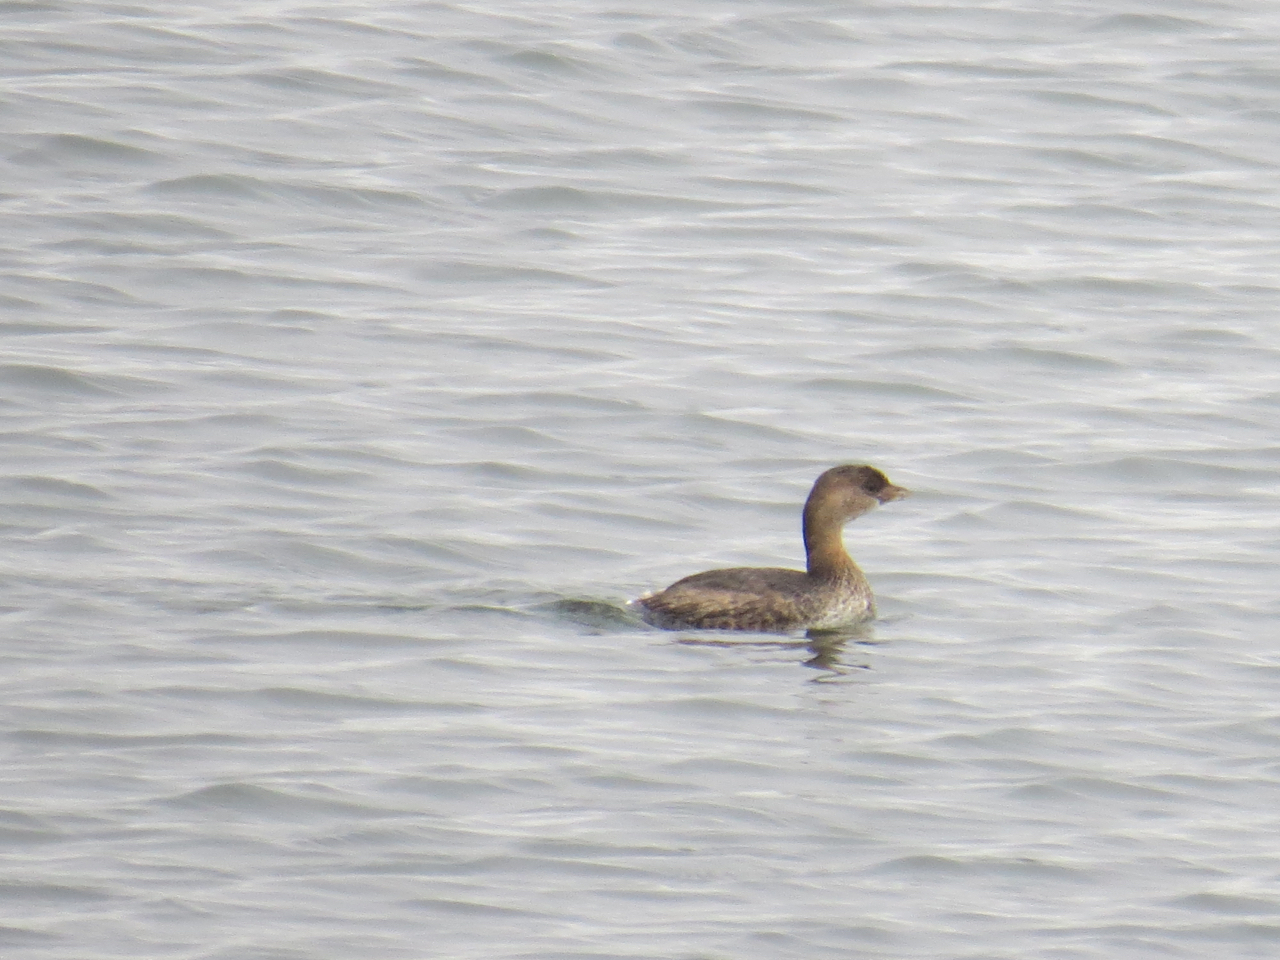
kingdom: Animalia
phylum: Chordata
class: Aves
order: Podicipediformes
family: Podicipedidae
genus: Podilymbus
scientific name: Podilymbus podiceps
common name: Pied-billed grebe
